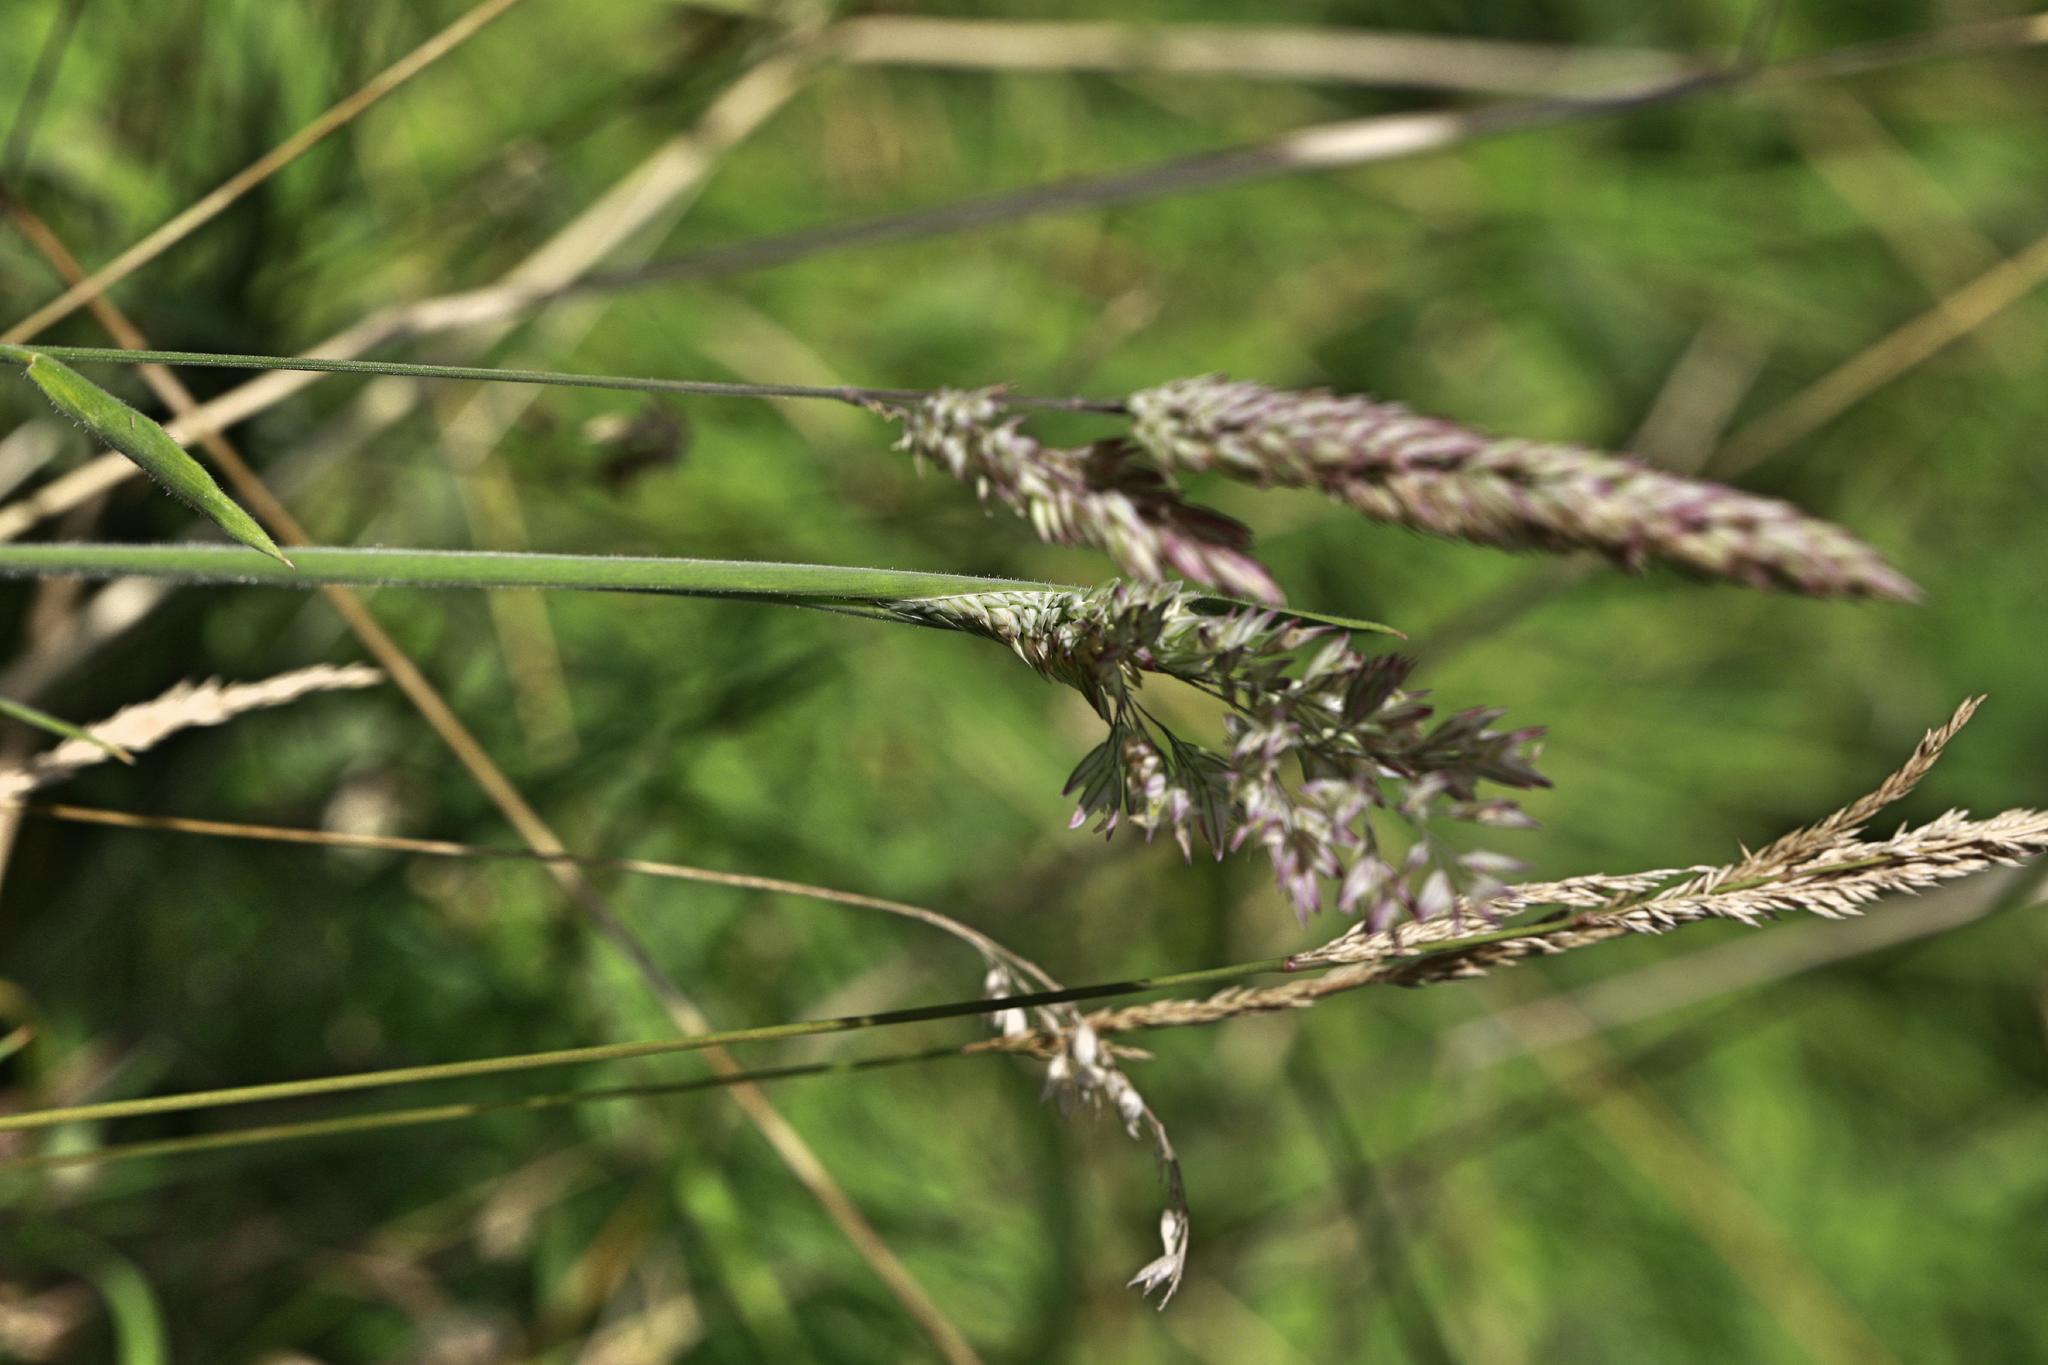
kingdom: Plantae
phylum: Tracheophyta
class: Liliopsida
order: Poales
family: Poaceae
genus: Holcus
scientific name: Holcus lanatus
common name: Yorkshire-fog
